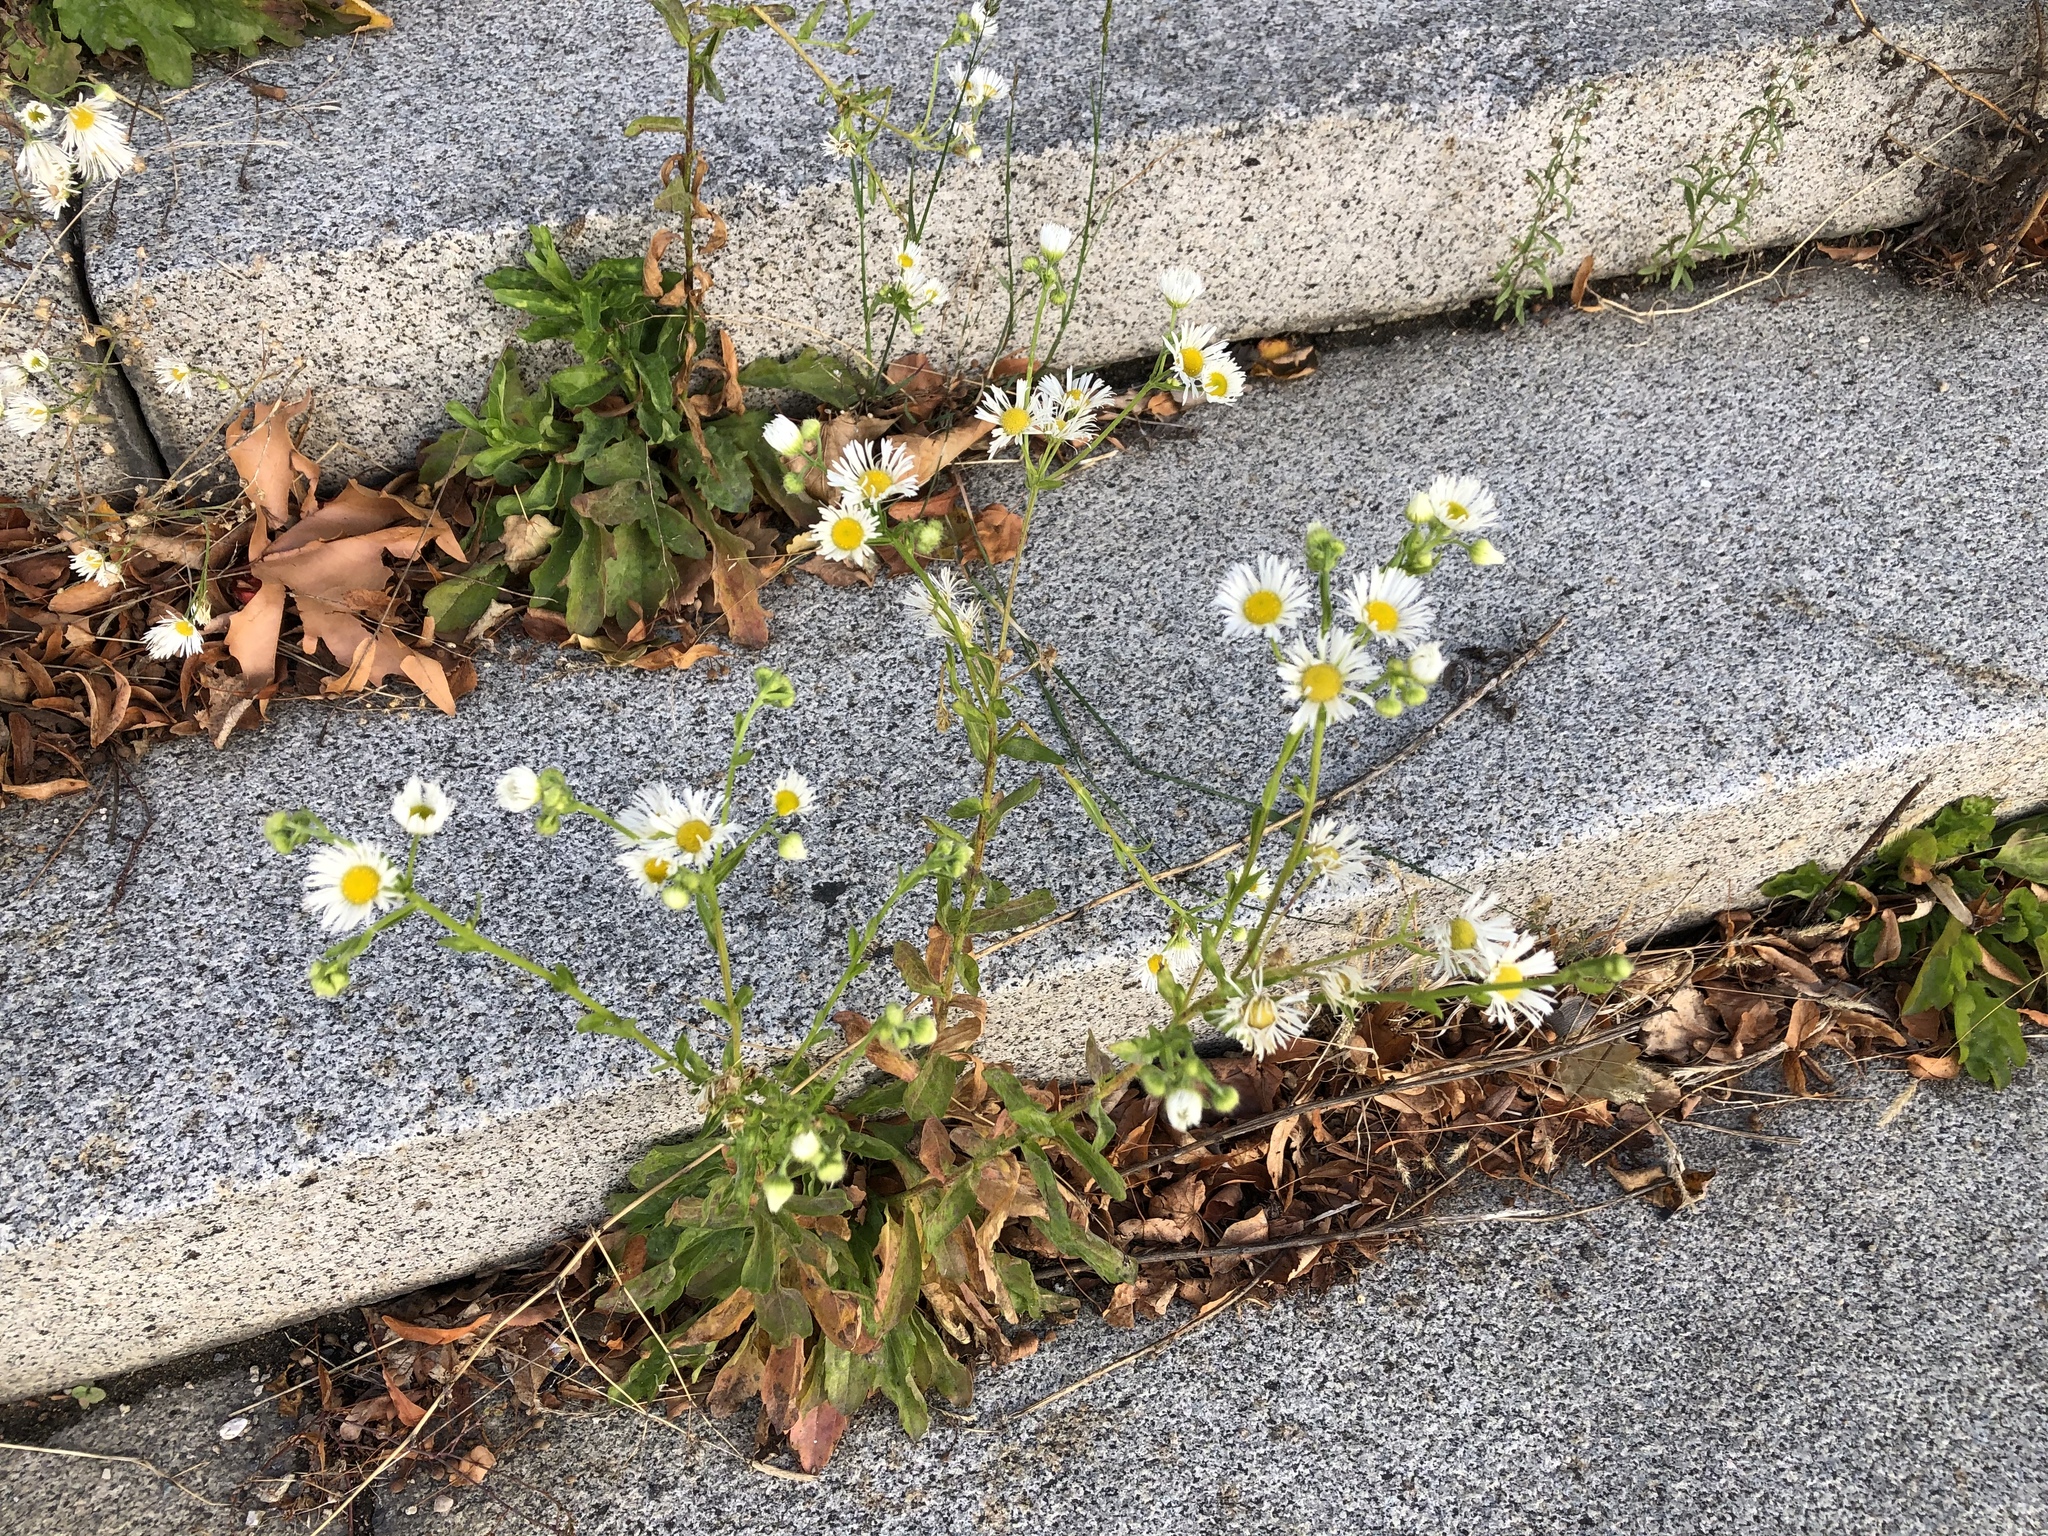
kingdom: Plantae
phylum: Tracheophyta
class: Magnoliopsida
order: Asterales
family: Asteraceae
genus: Erigeron
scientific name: Erigeron annuus
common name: Tall fleabane
